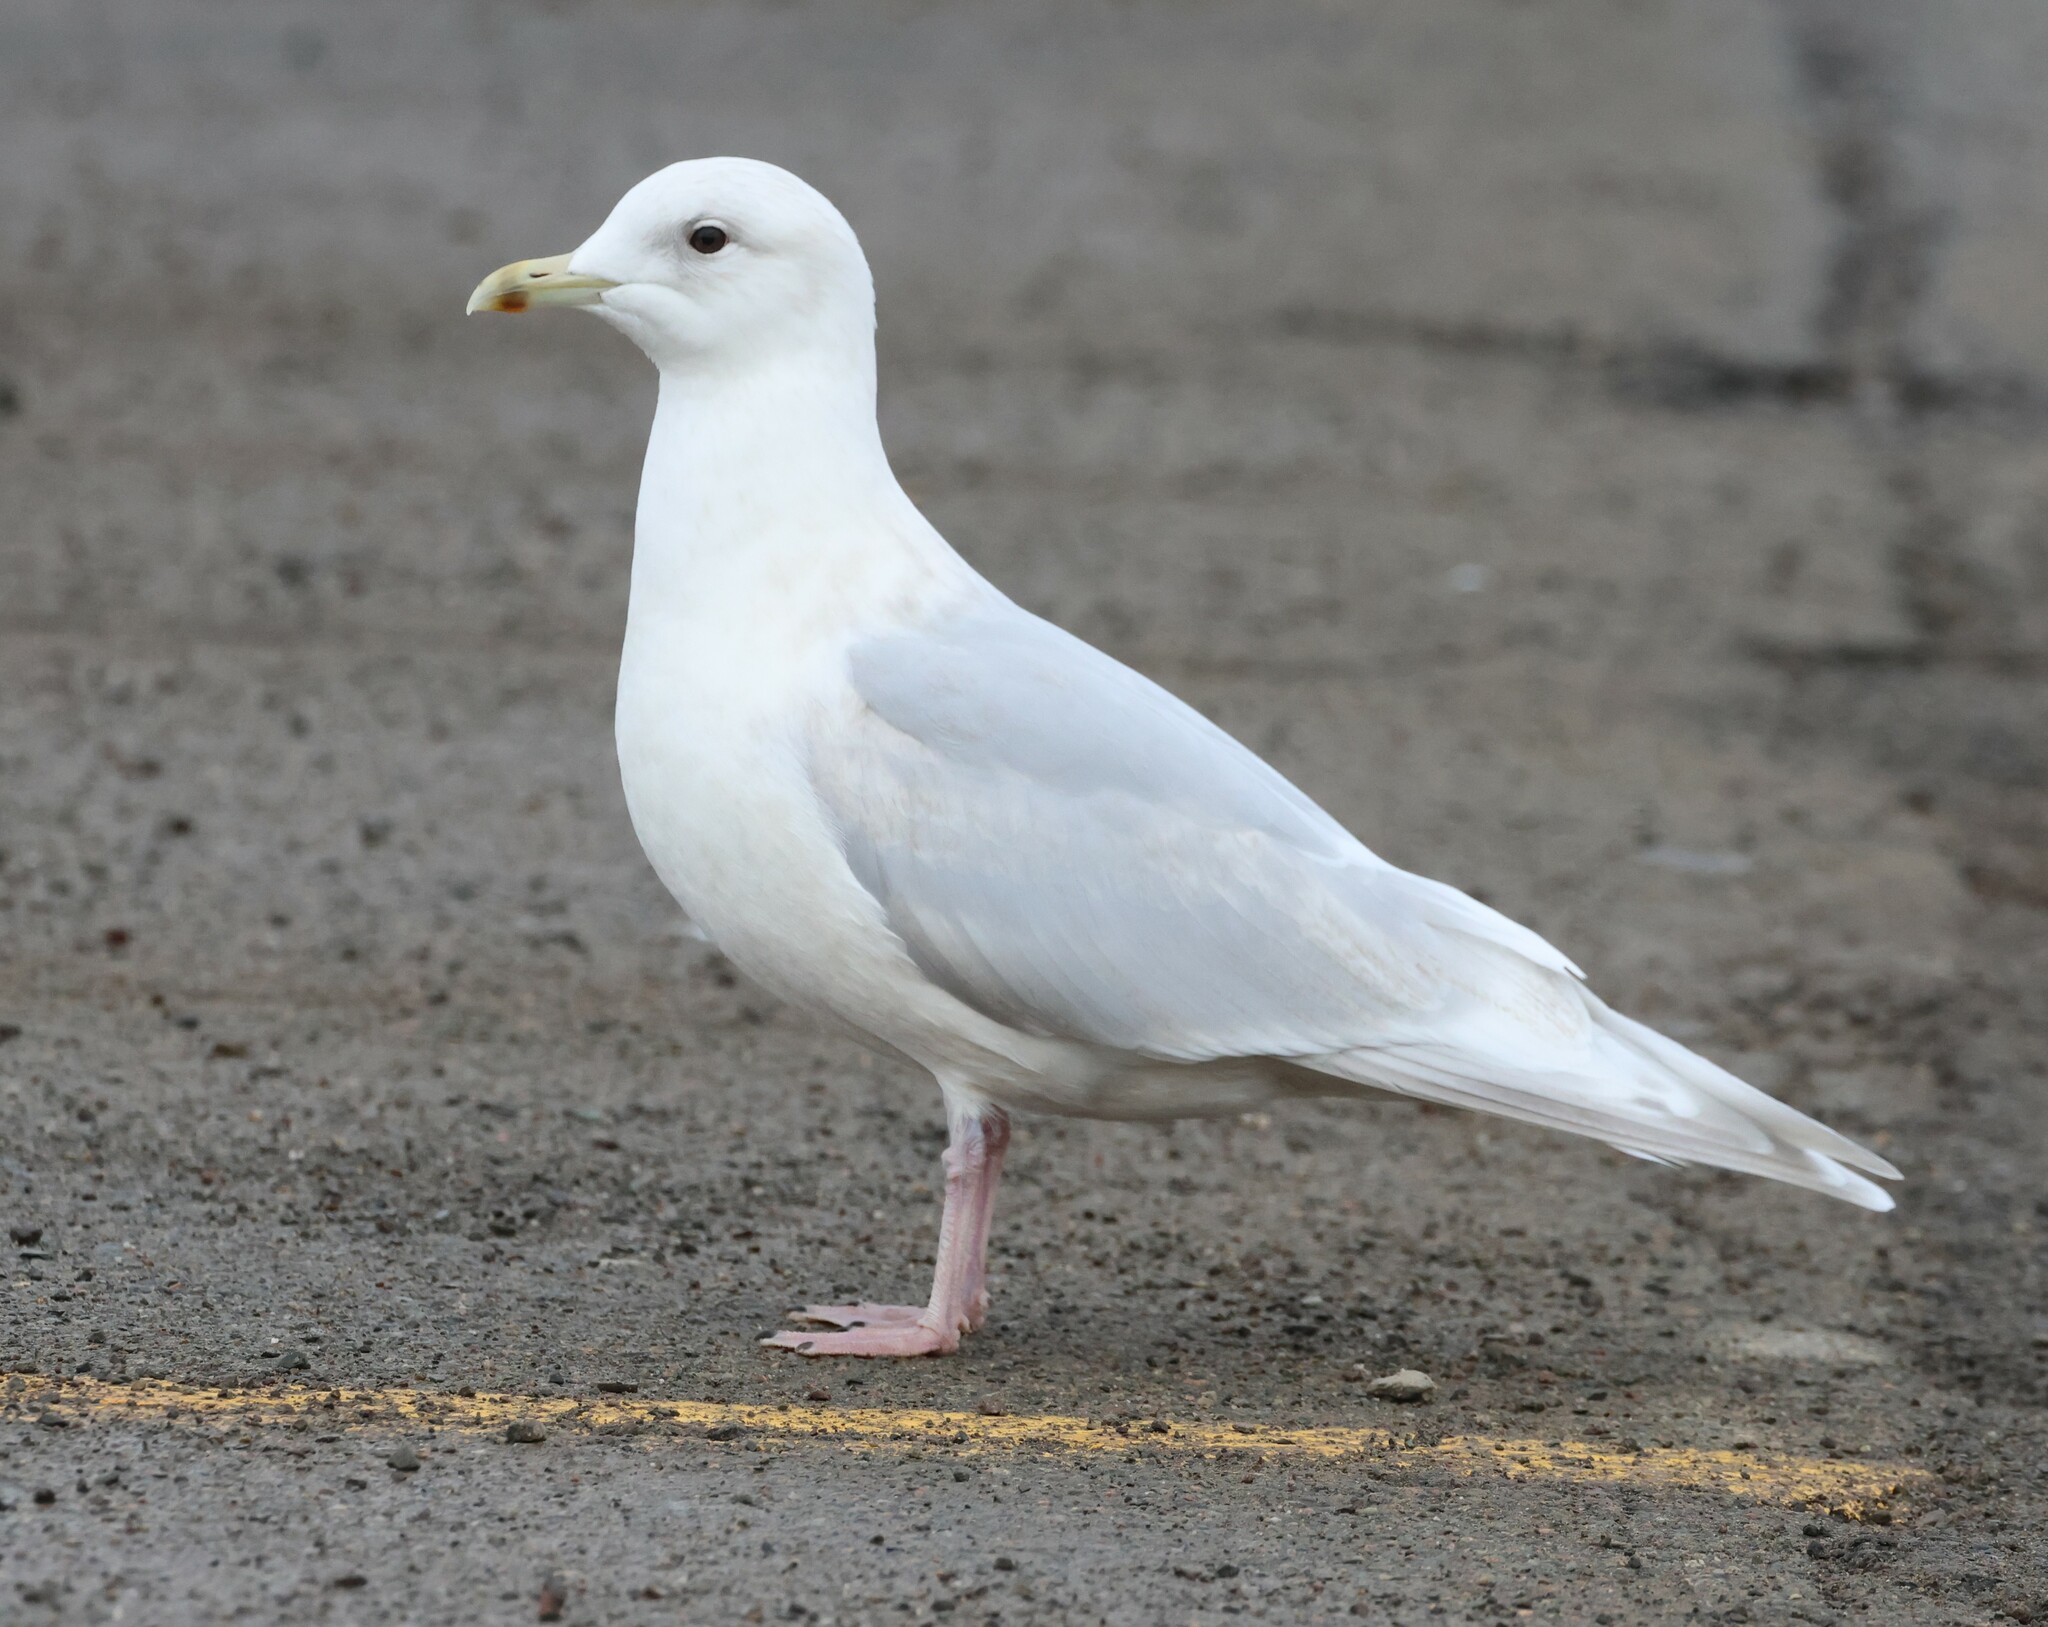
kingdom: Animalia
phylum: Chordata
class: Aves
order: Charadriiformes
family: Laridae
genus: Larus
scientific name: Larus glaucoides
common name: Iceland gull
